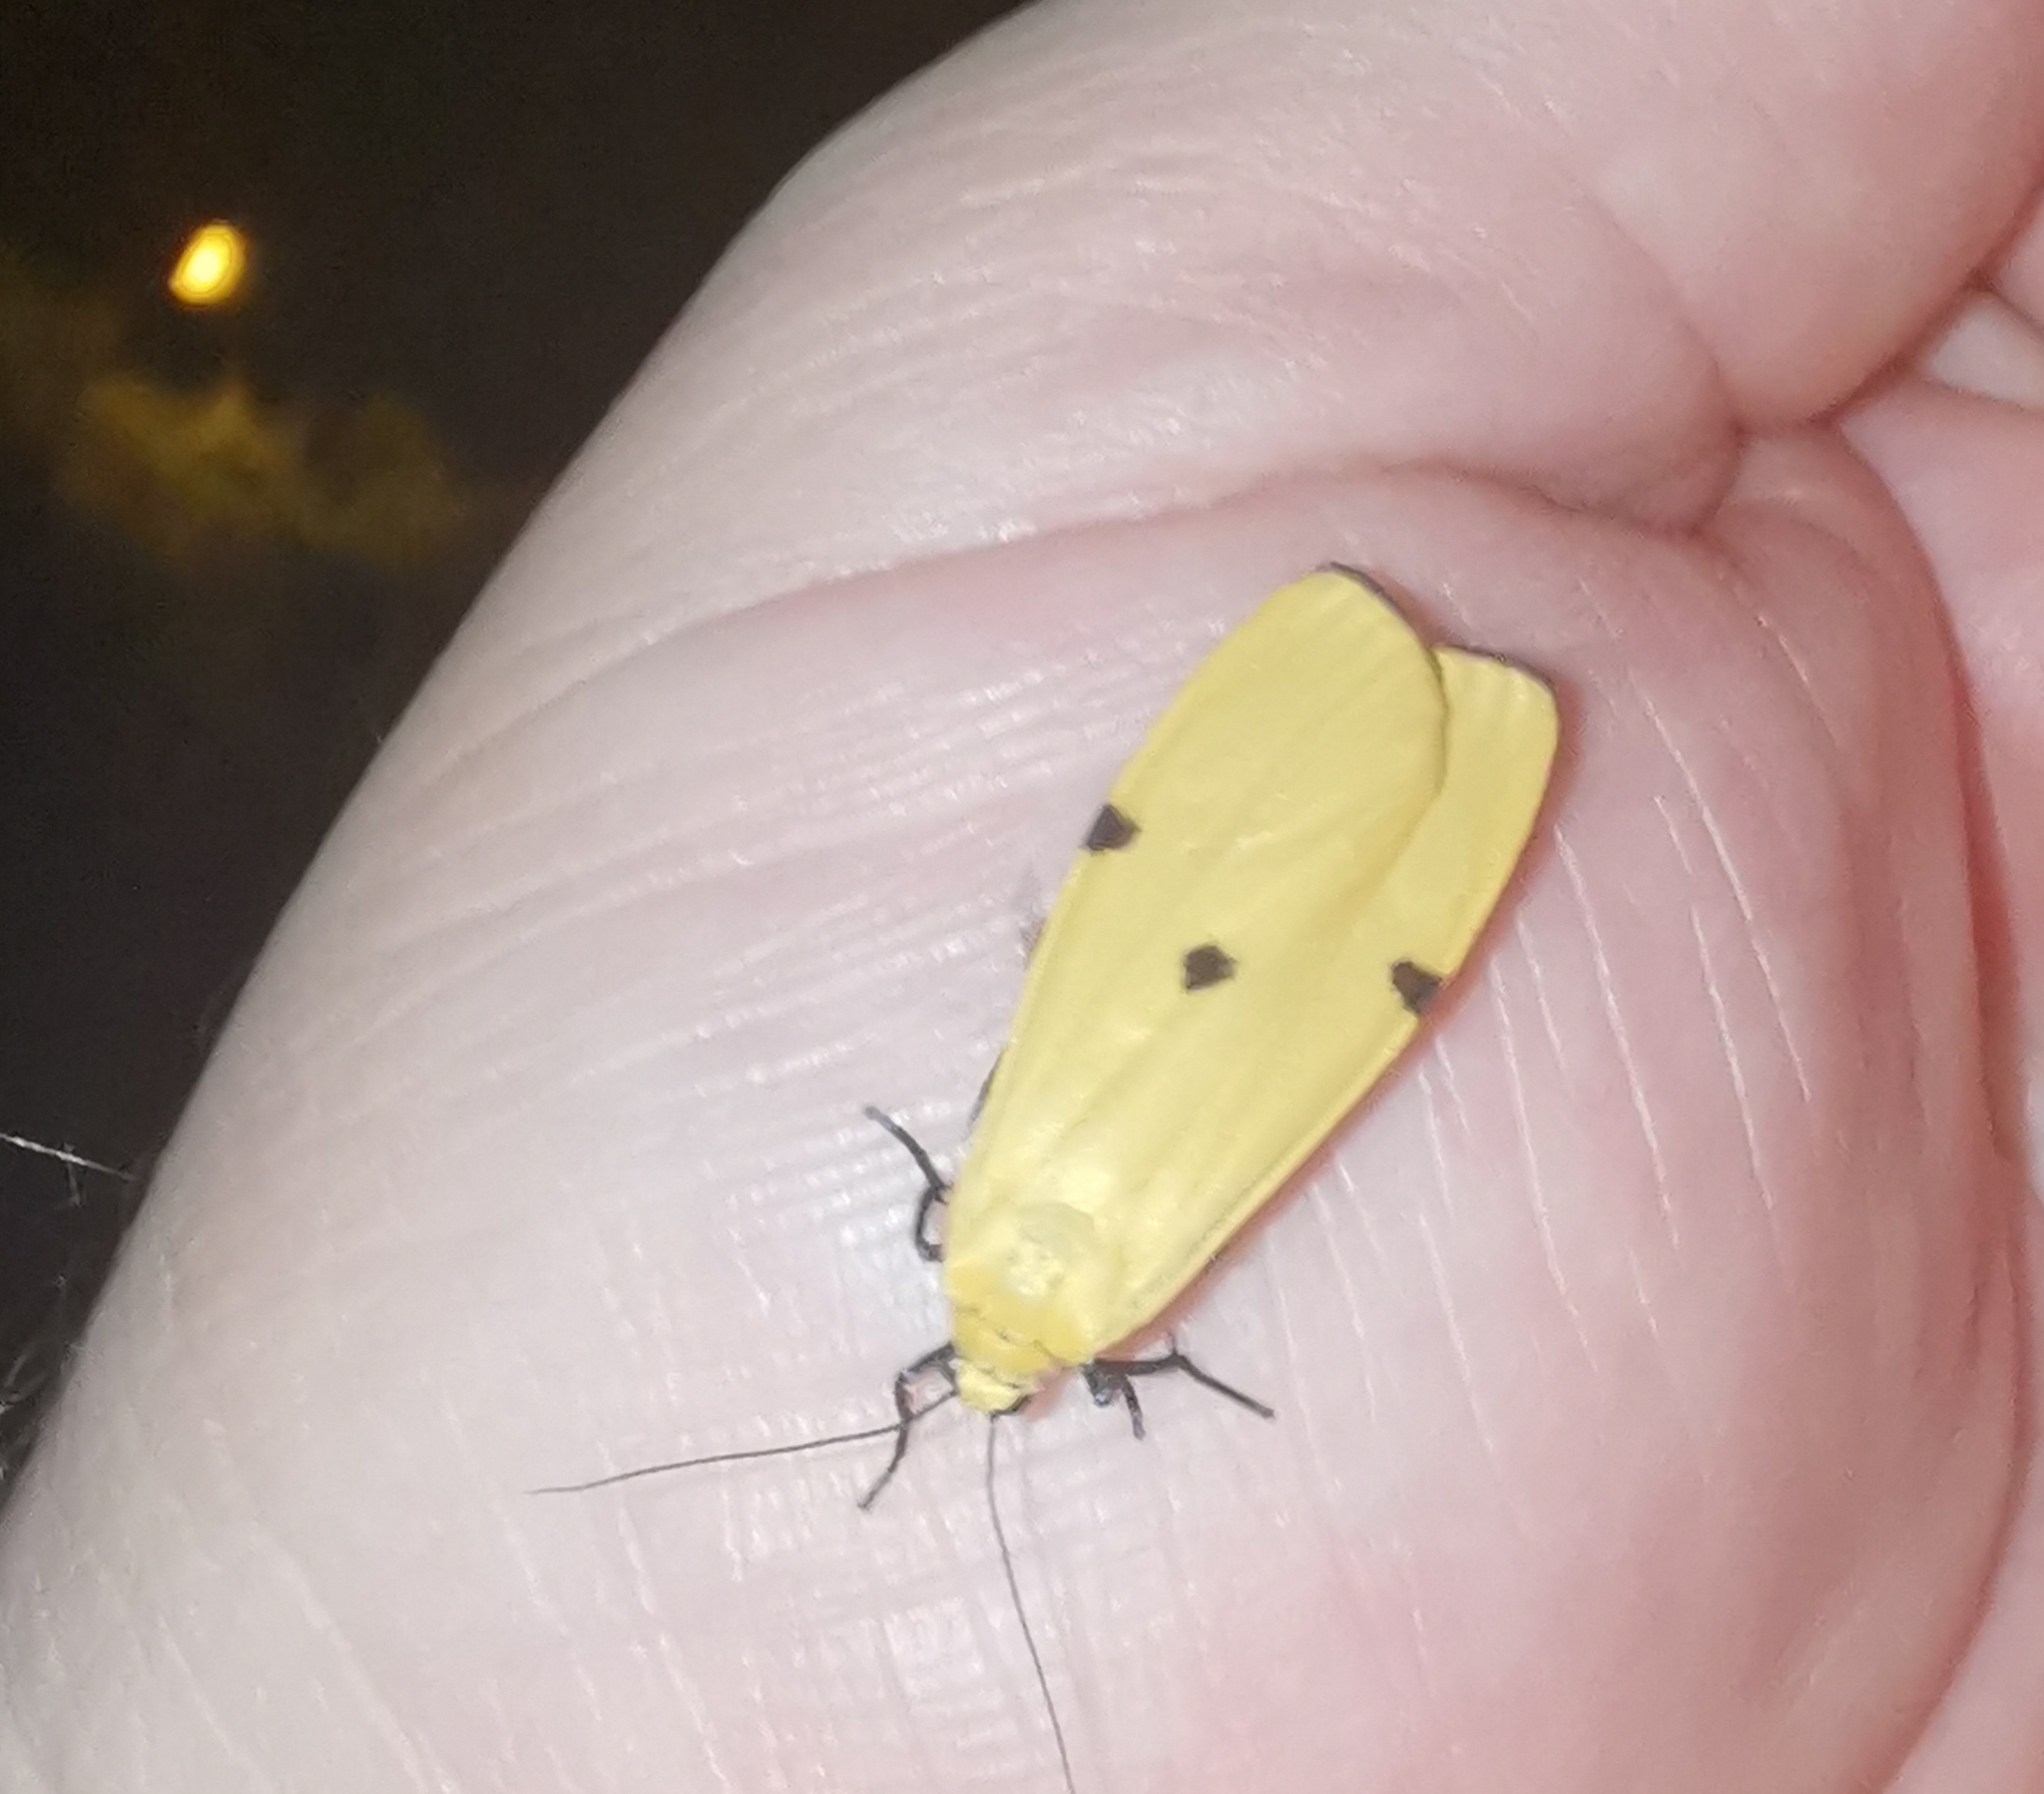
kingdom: Animalia
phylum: Arthropoda
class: Insecta
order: Lepidoptera
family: Erebidae
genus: Lithosia
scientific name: Lithosia quadra
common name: Four-spotted footman
